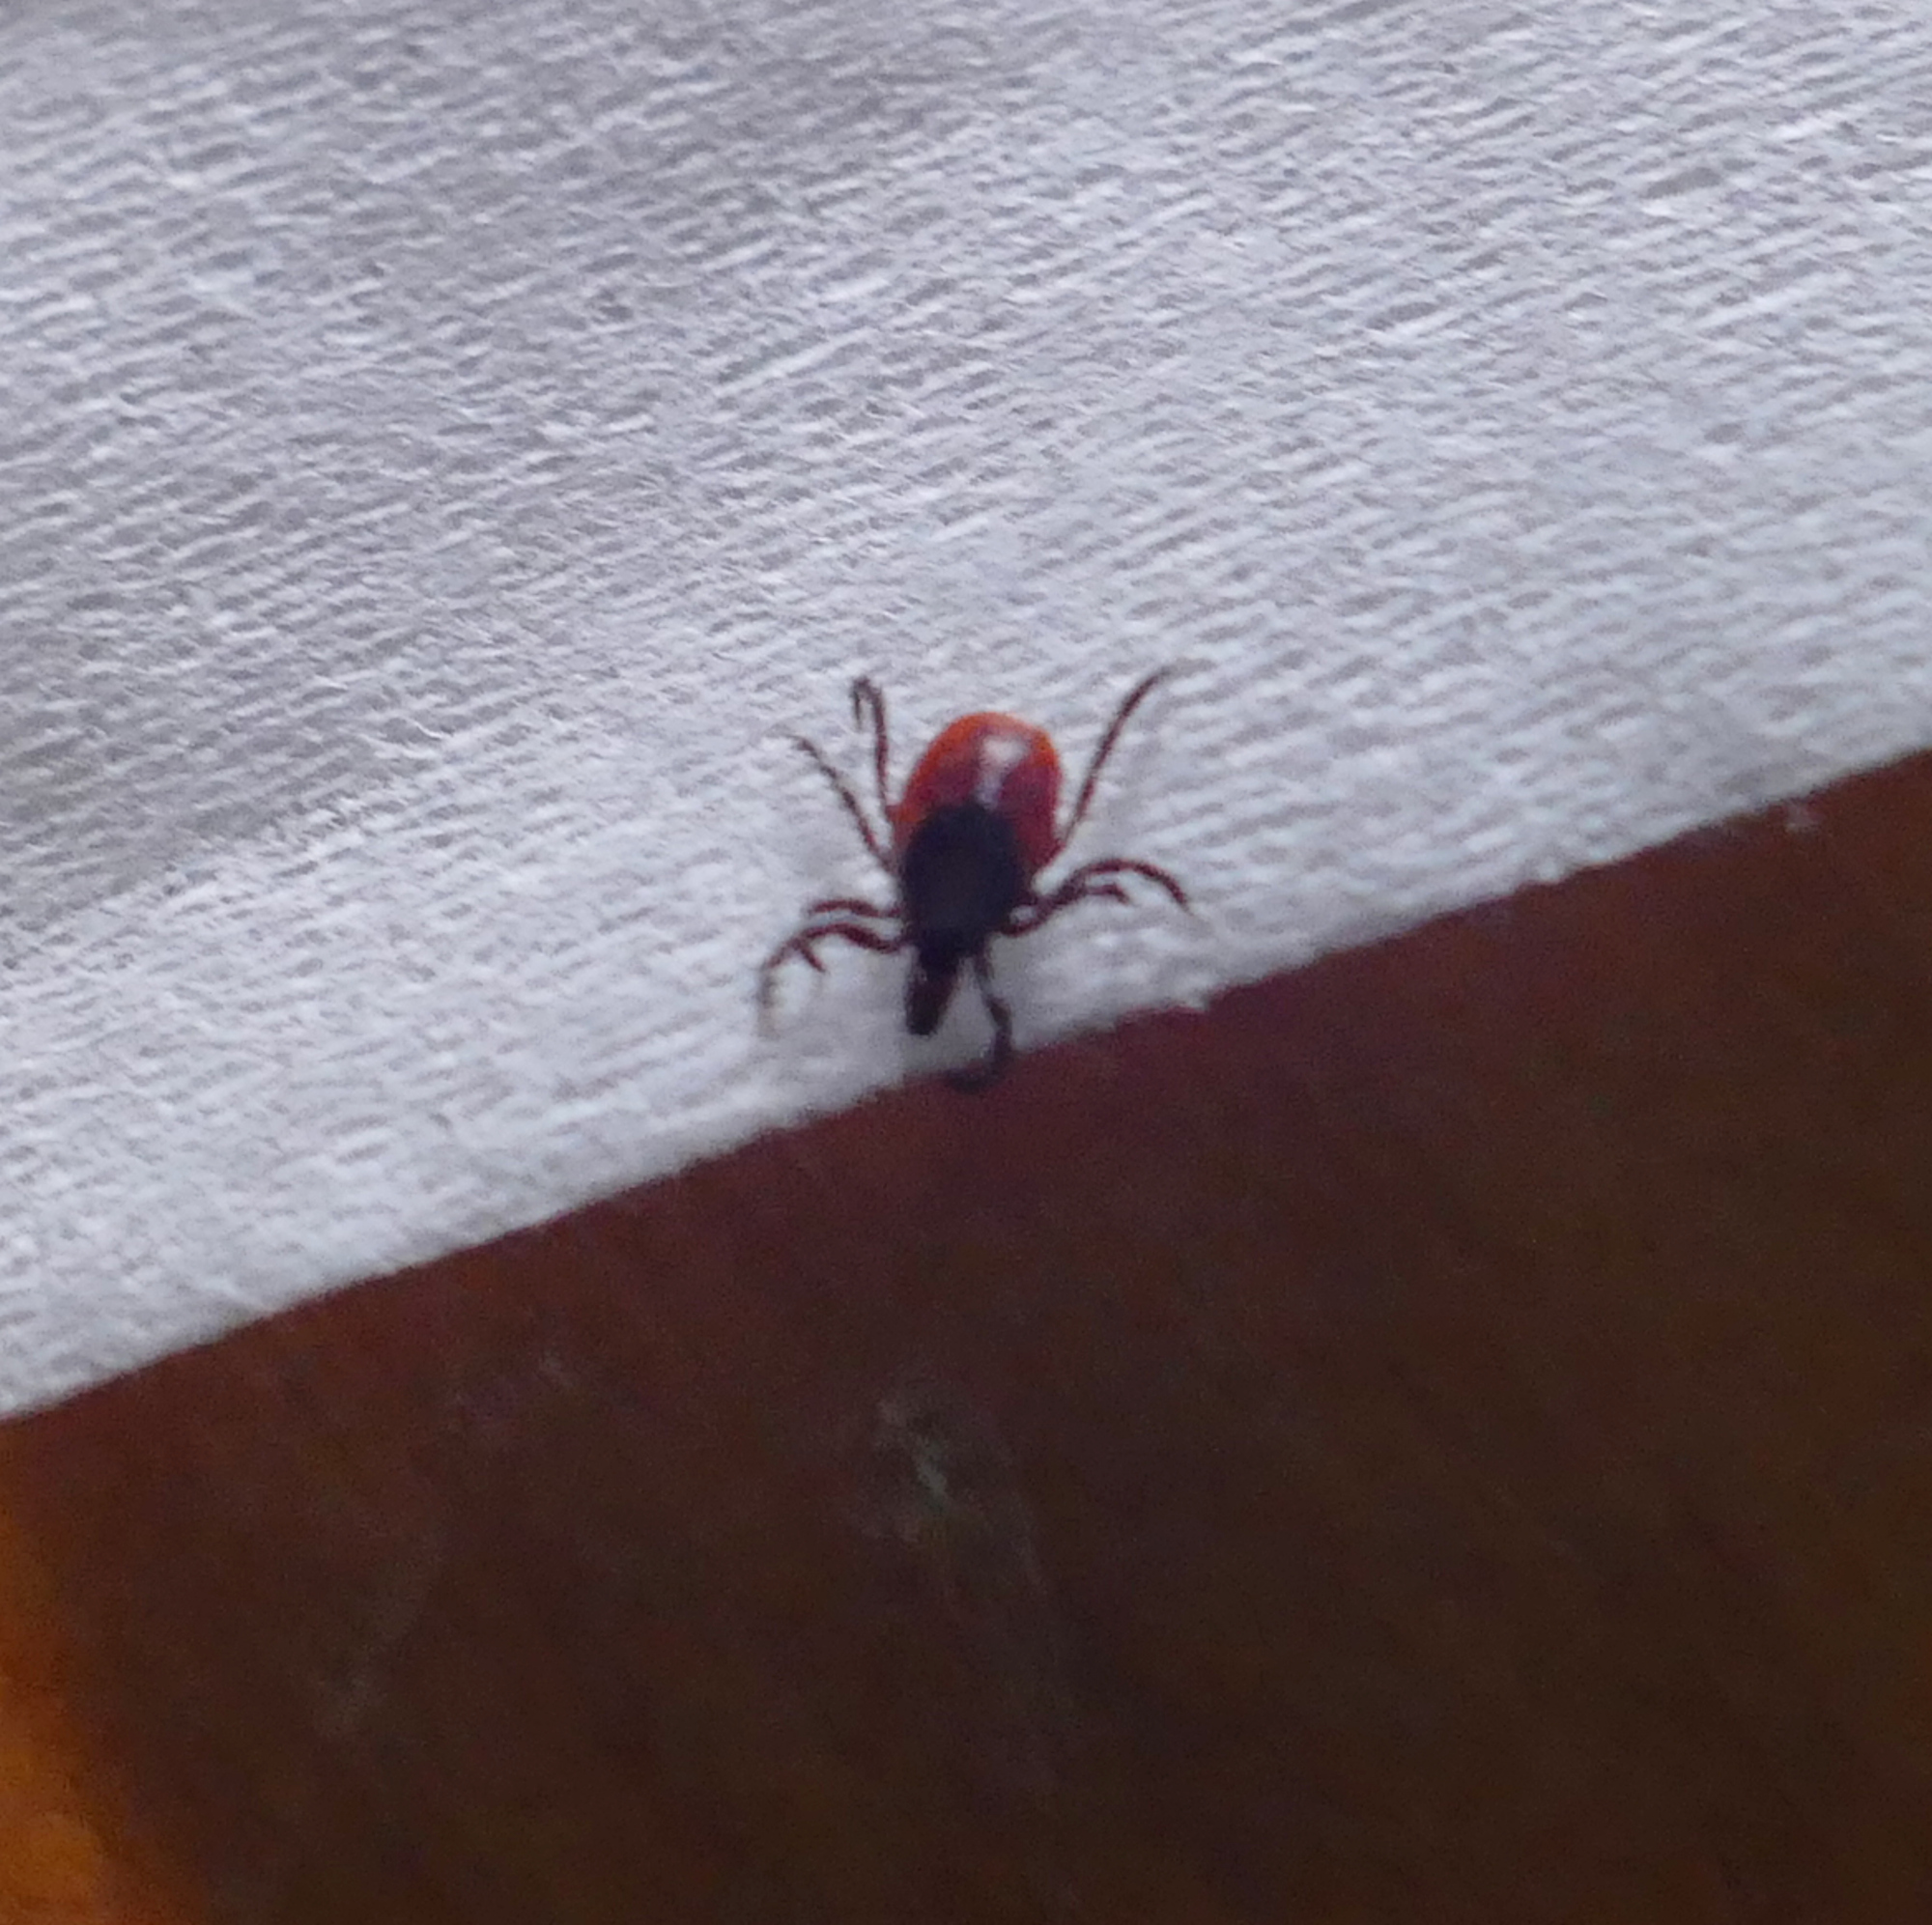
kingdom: Animalia
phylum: Arthropoda
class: Arachnida
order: Ixodida
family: Ixodidae
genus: Ixodes
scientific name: Ixodes scapularis
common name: Black legged tick
